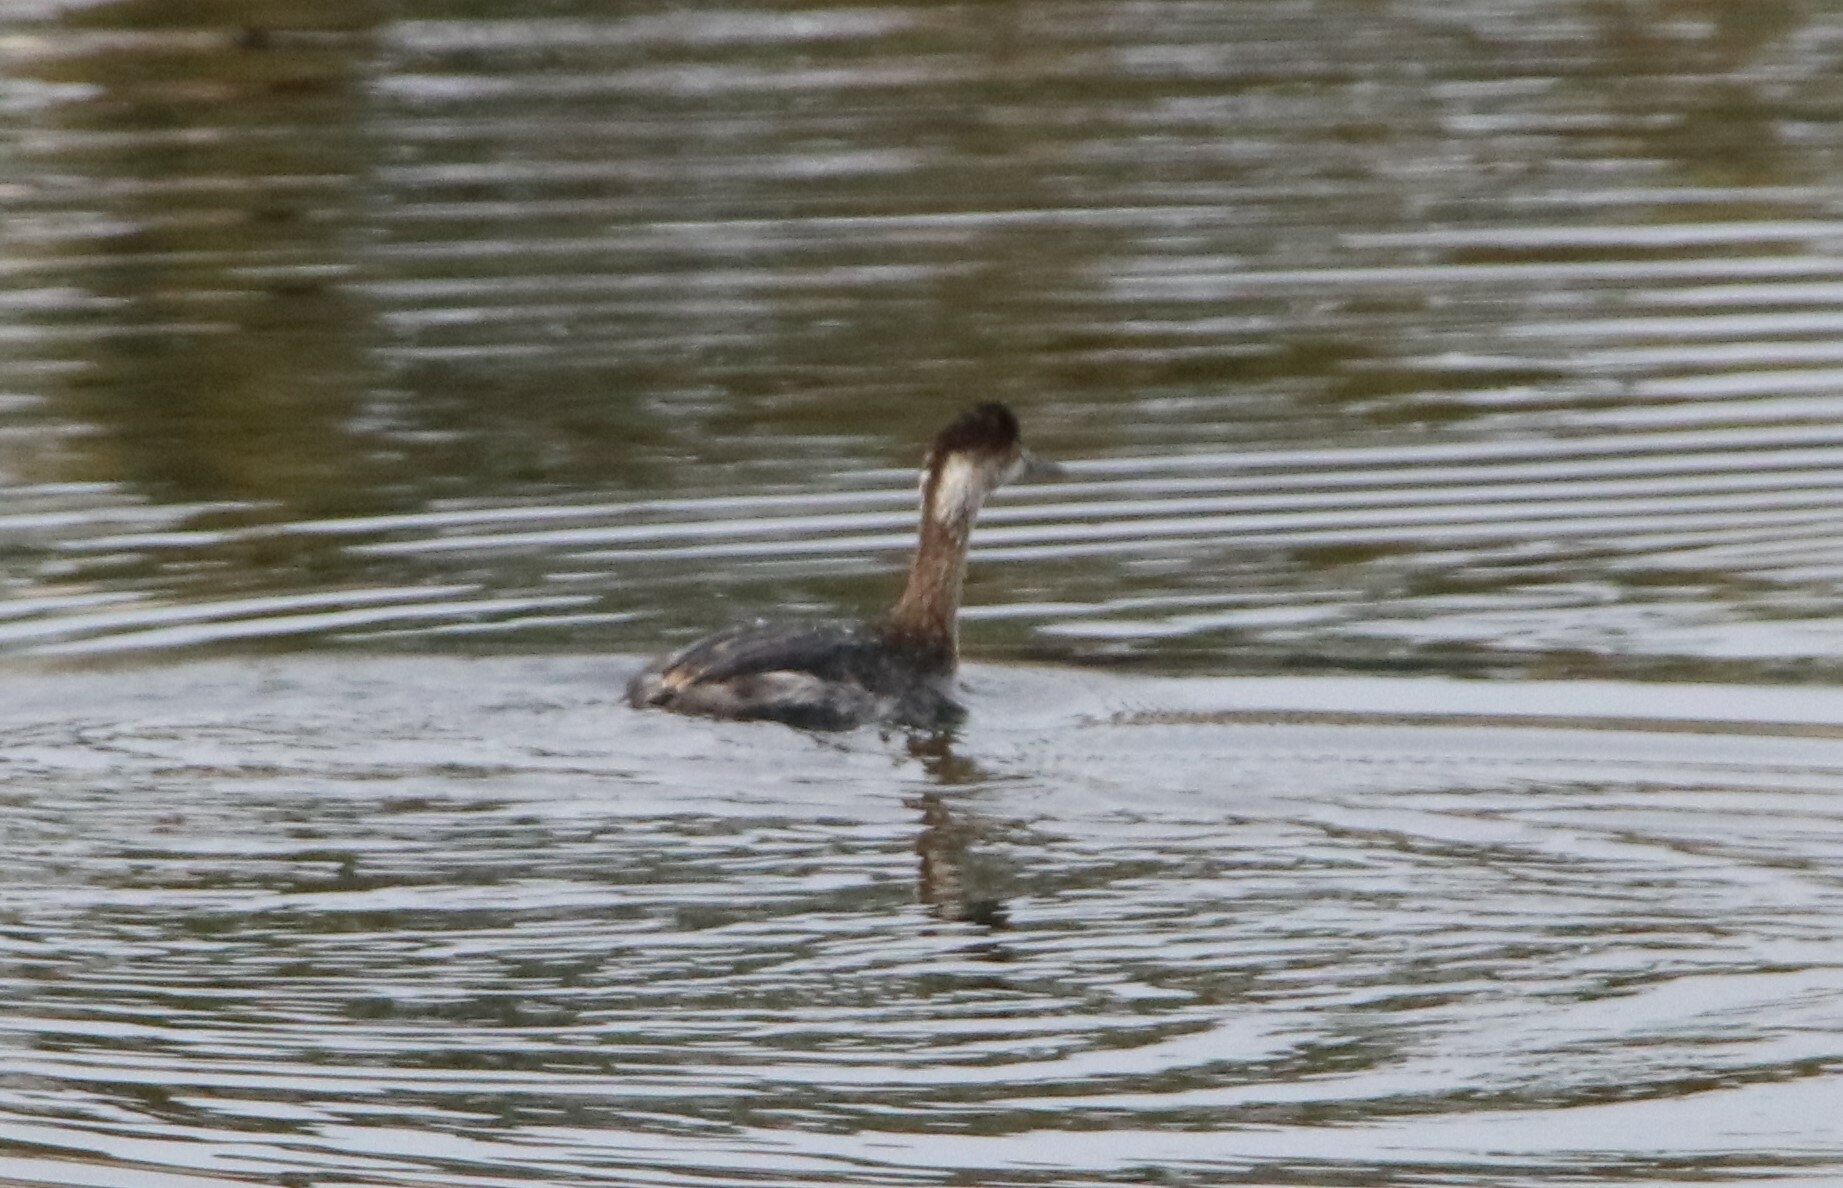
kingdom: Animalia
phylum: Chordata
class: Aves
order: Podicipediformes
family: Podicipedidae
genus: Podiceps
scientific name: Podiceps nigricollis
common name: Black-necked grebe
